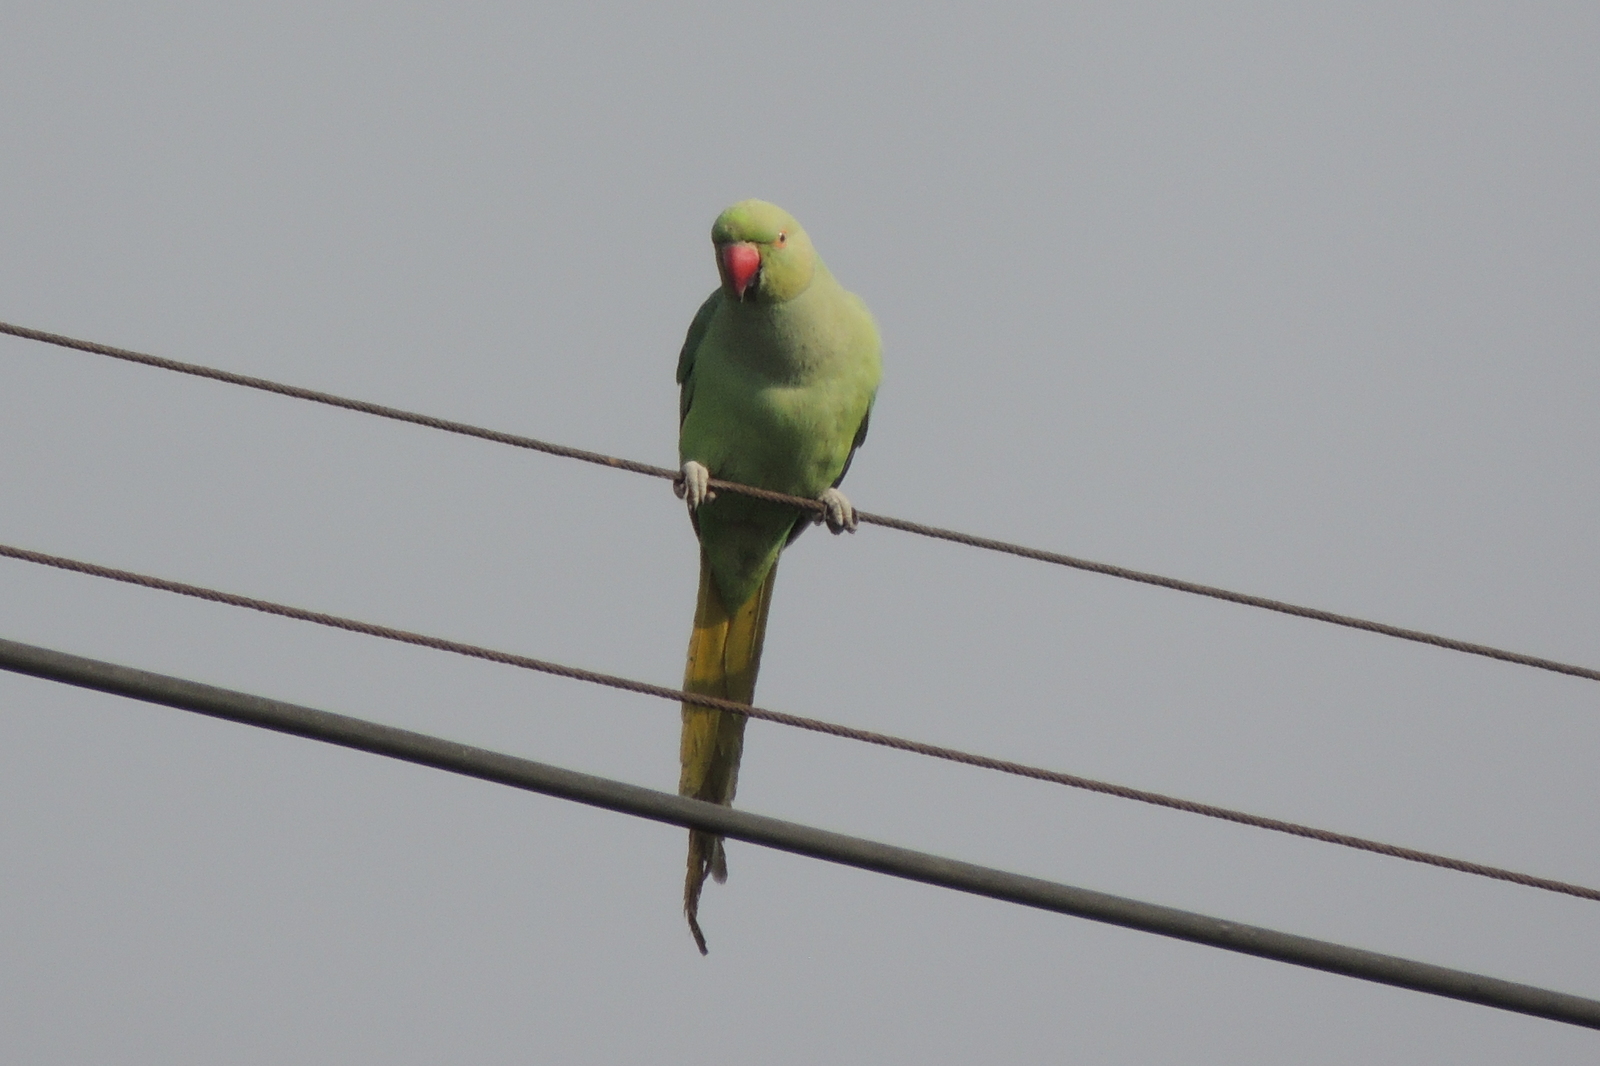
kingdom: Animalia
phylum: Chordata
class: Aves
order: Psittaciformes
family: Psittacidae
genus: Psittacula
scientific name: Psittacula krameri
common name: Rose-ringed parakeet
